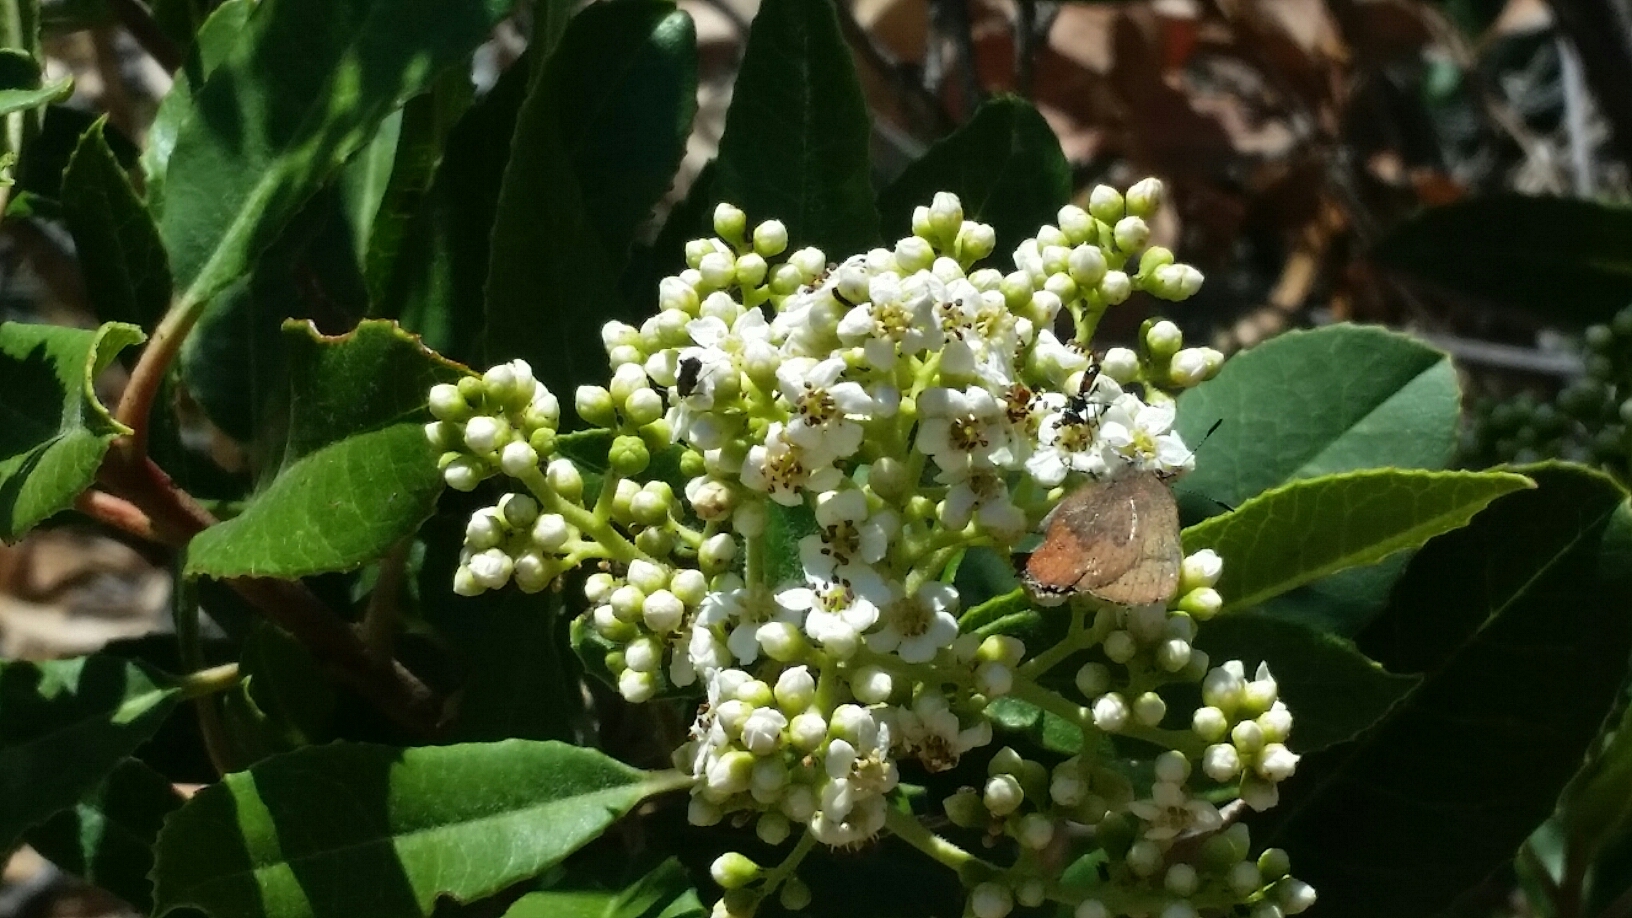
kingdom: Plantae
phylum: Tracheophyta
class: Magnoliopsida
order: Rosales
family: Rosaceae
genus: Heteromeles
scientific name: Heteromeles arbutifolia
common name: California-holly
